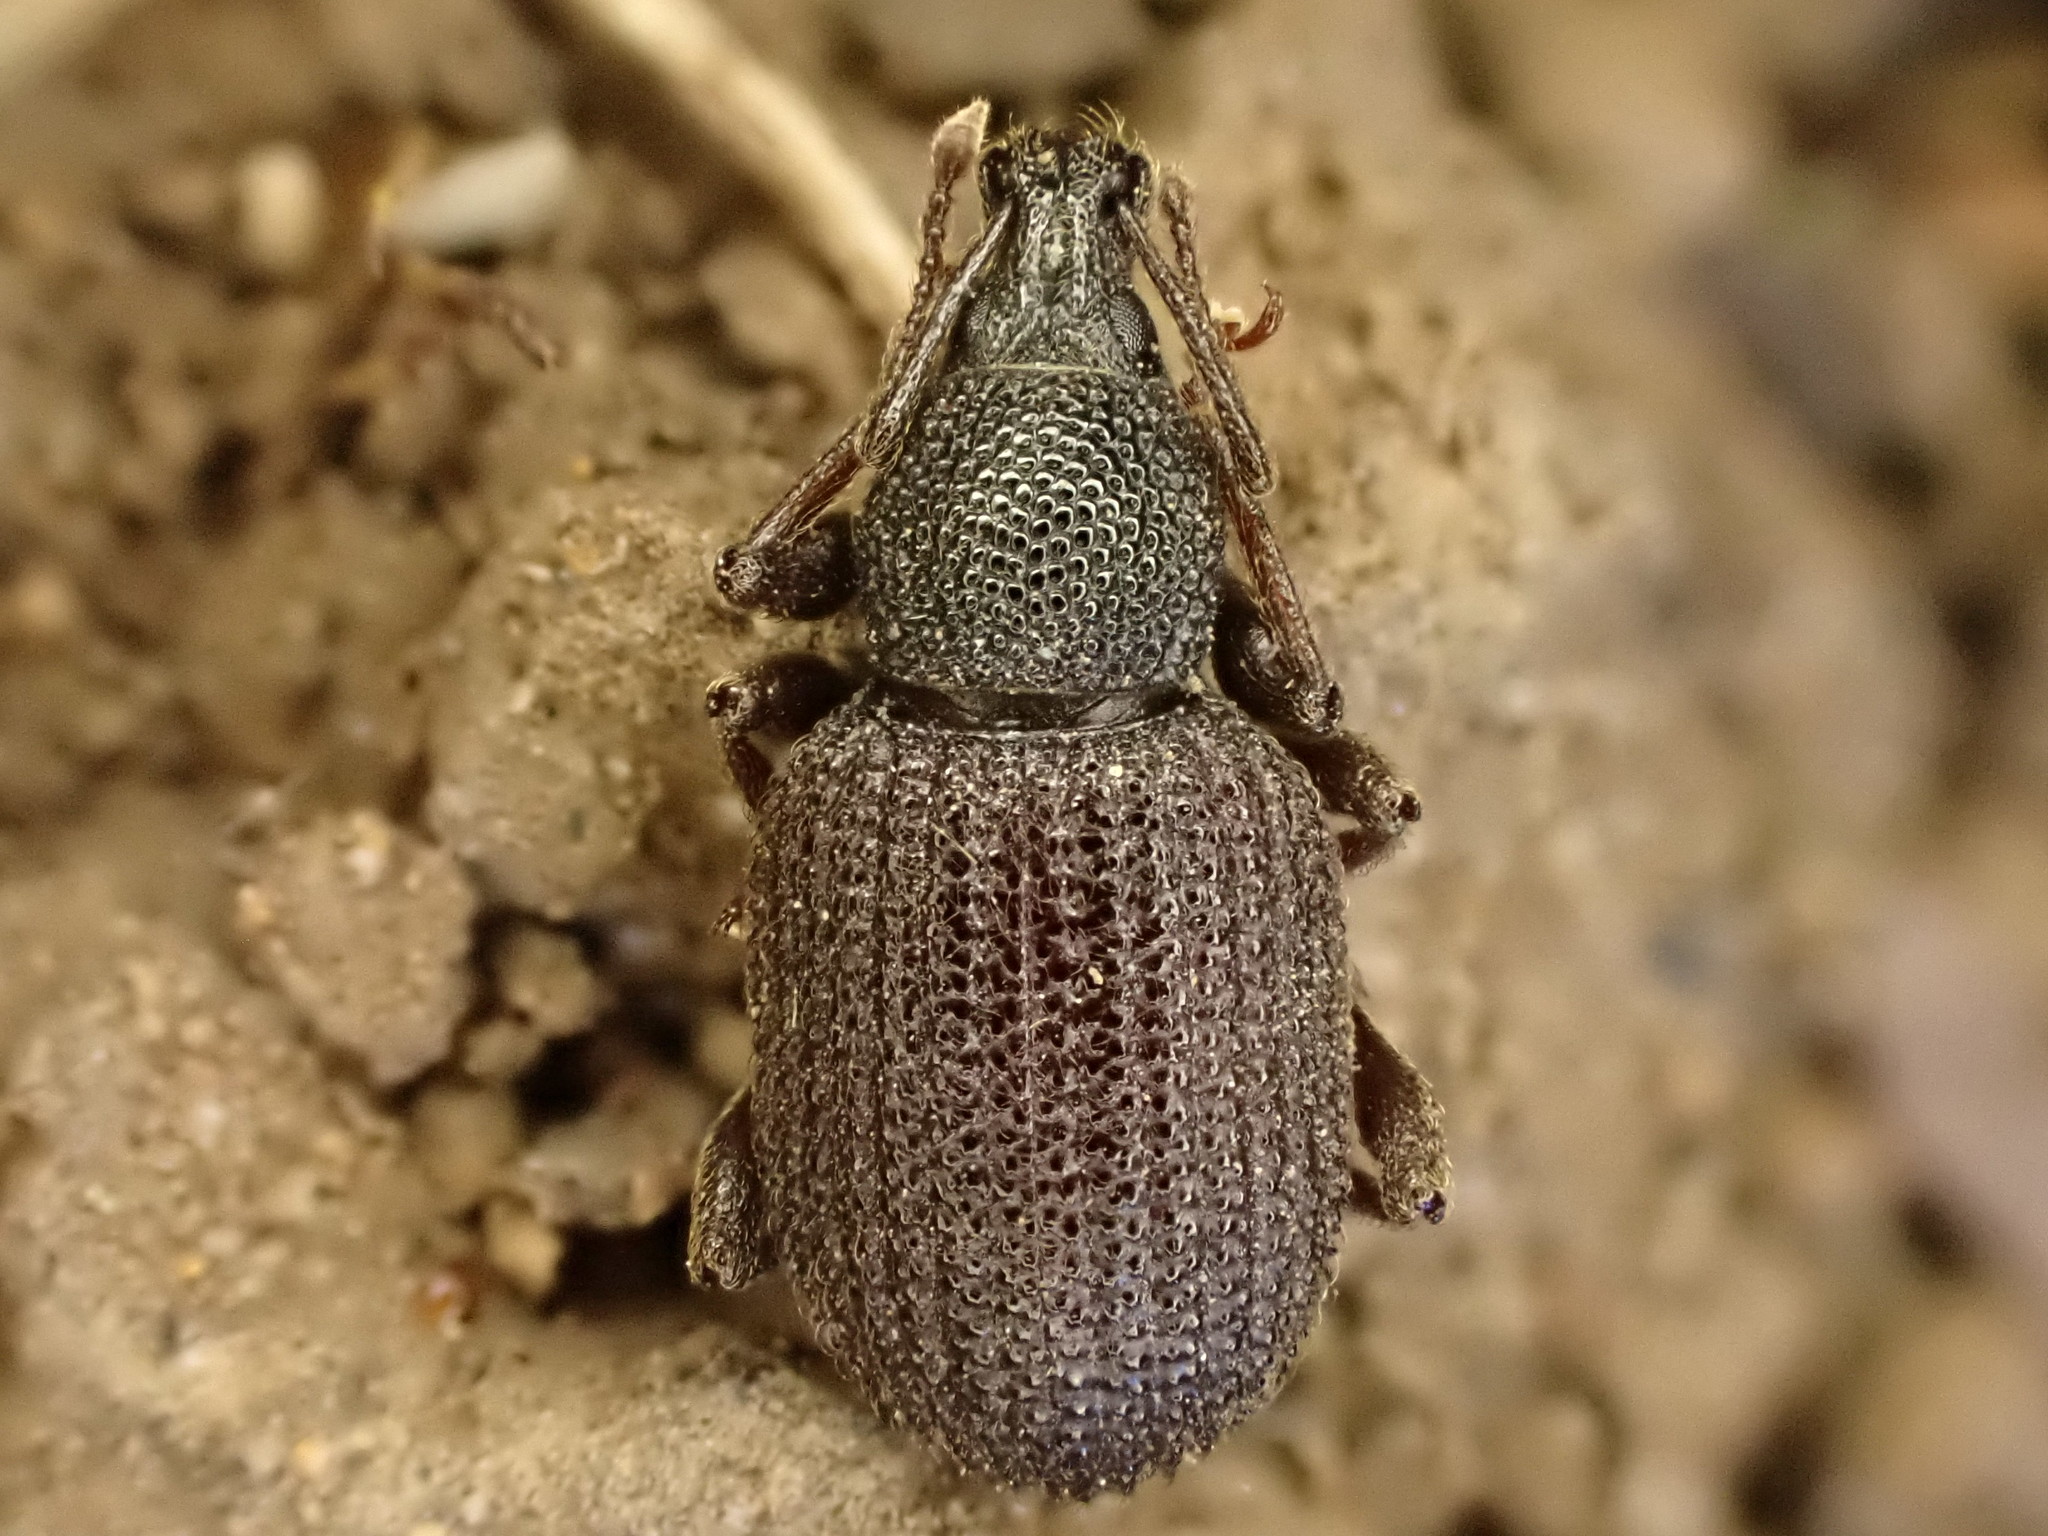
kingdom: Animalia
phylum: Arthropoda
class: Insecta
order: Coleoptera
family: Curculionidae
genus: Otiorhynchus
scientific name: Otiorhynchus rugosostriatus
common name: Weevil
